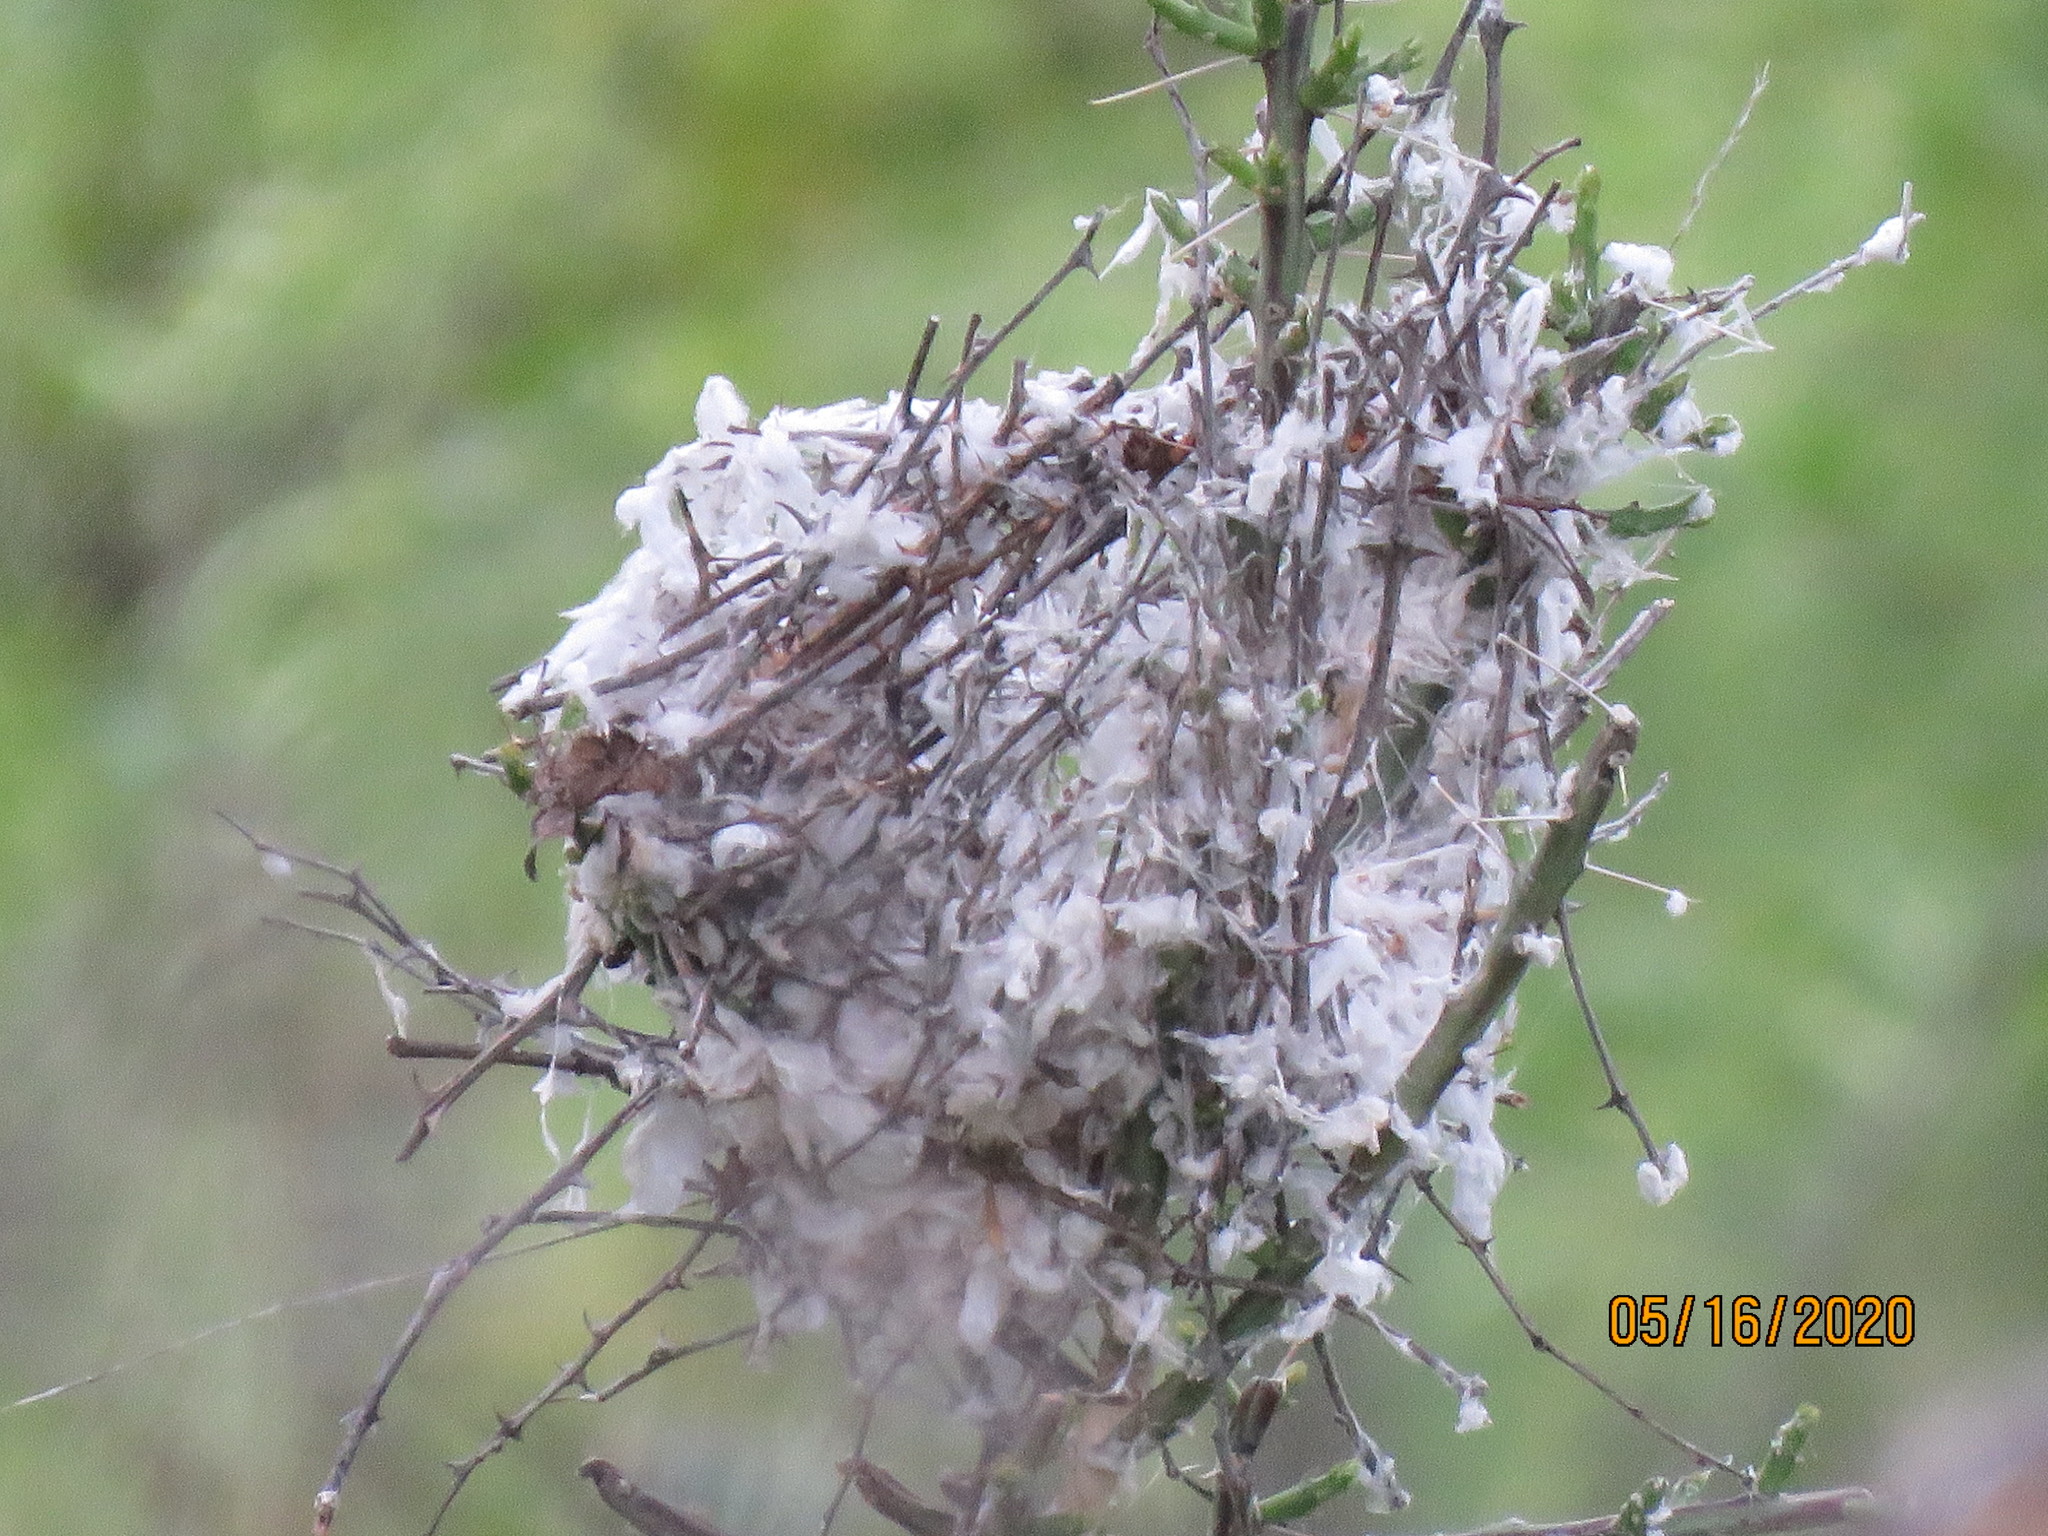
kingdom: Animalia
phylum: Chordata
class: Aves
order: Passeriformes
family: Remizidae
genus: Auriparus
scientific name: Auriparus flaviceps
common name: Verdin
